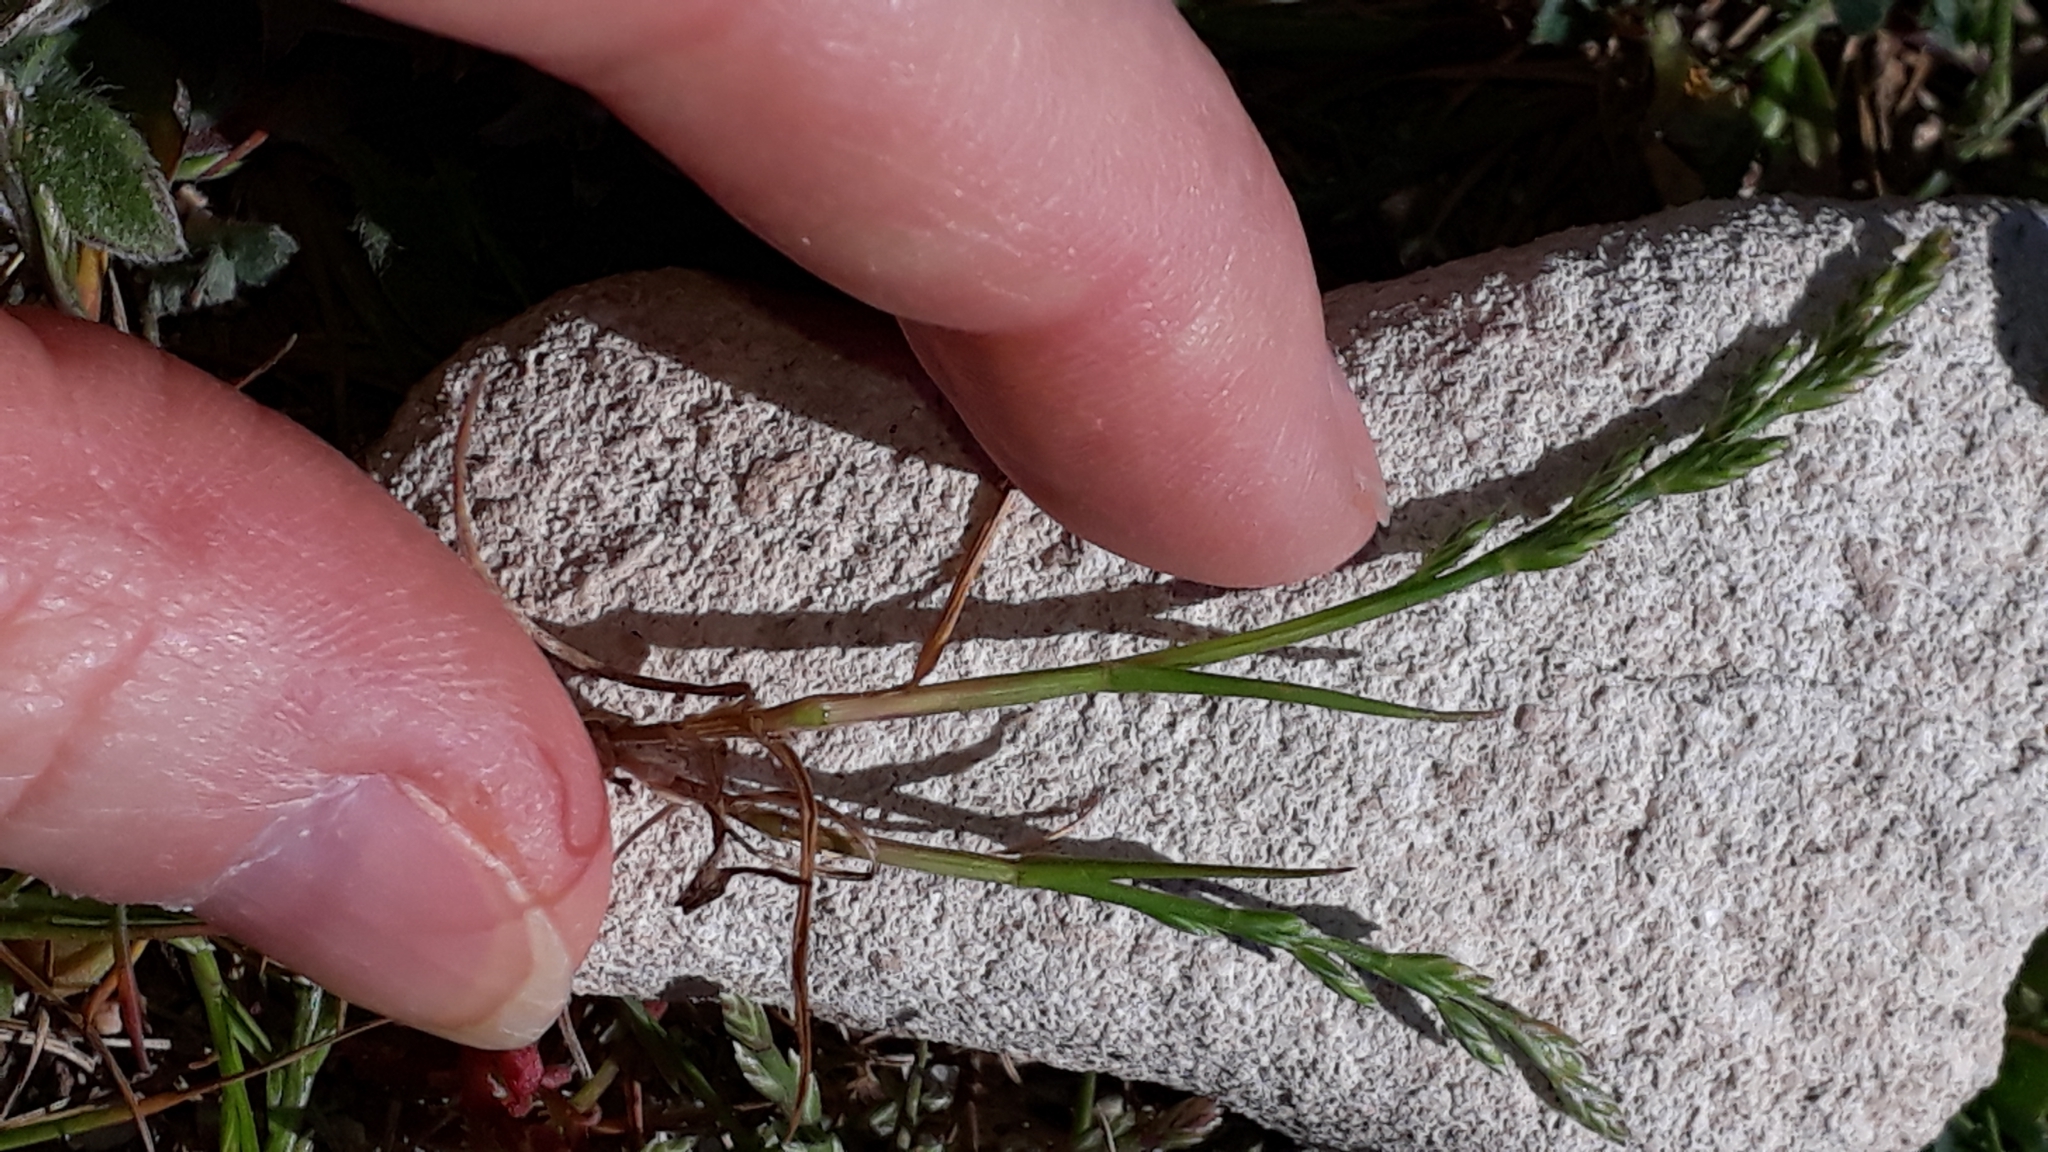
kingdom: Plantae
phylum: Tracheophyta
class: Liliopsida
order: Poales
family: Poaceae
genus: Catapodium
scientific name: Catapodium marinum
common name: Sea fern-grass
